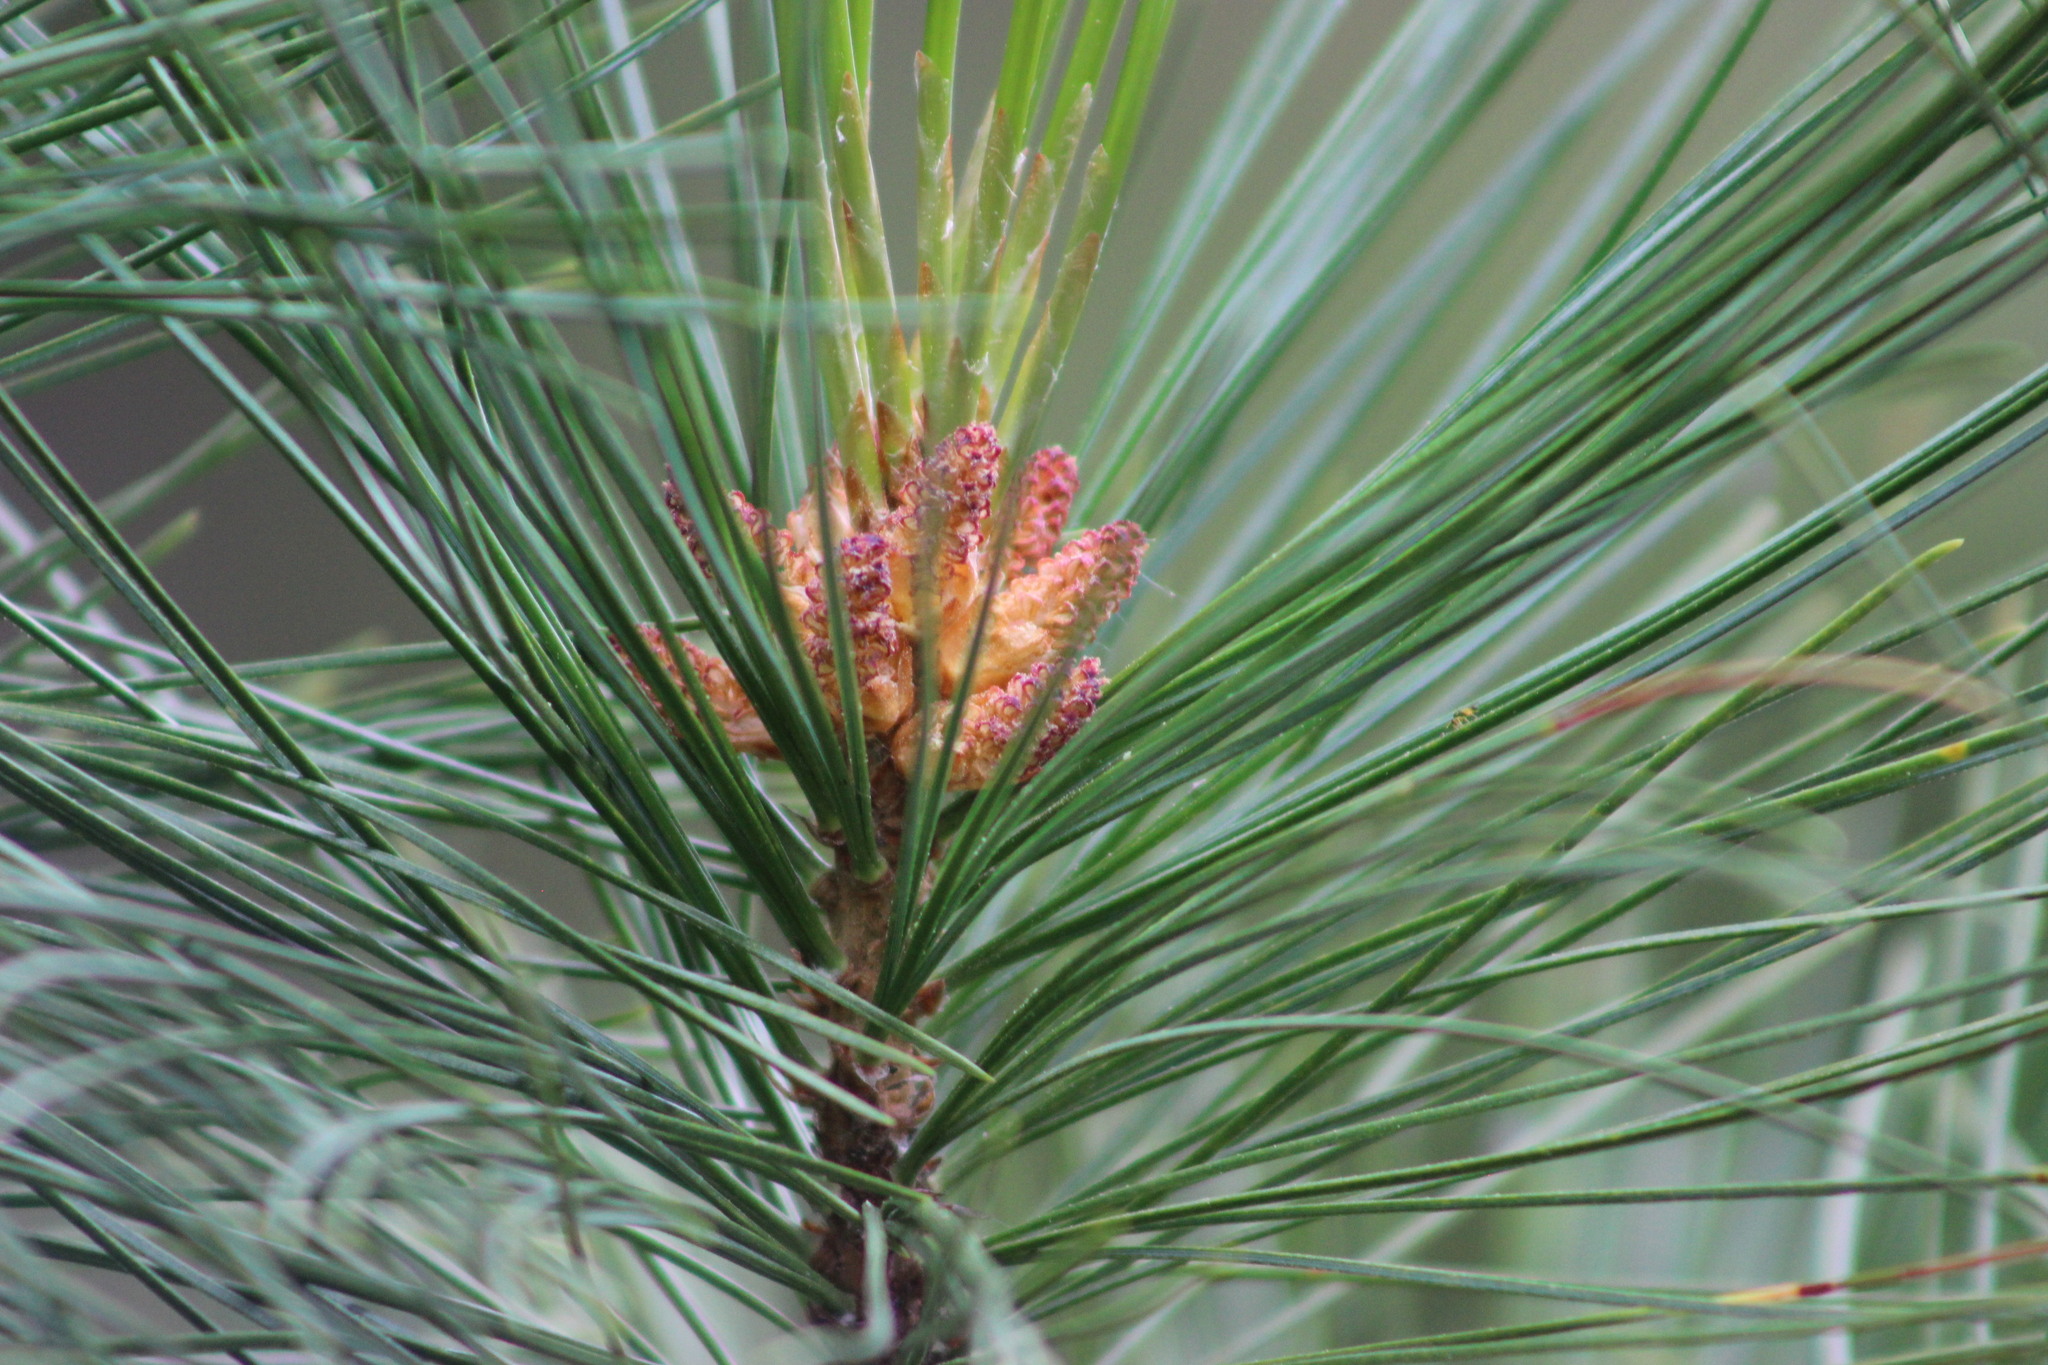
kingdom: Plantae
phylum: Tracheophyta
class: Pinopsida
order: Pinales
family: Pinaceae
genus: Pinus
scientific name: Pinus sibirica
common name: Siberian pine
